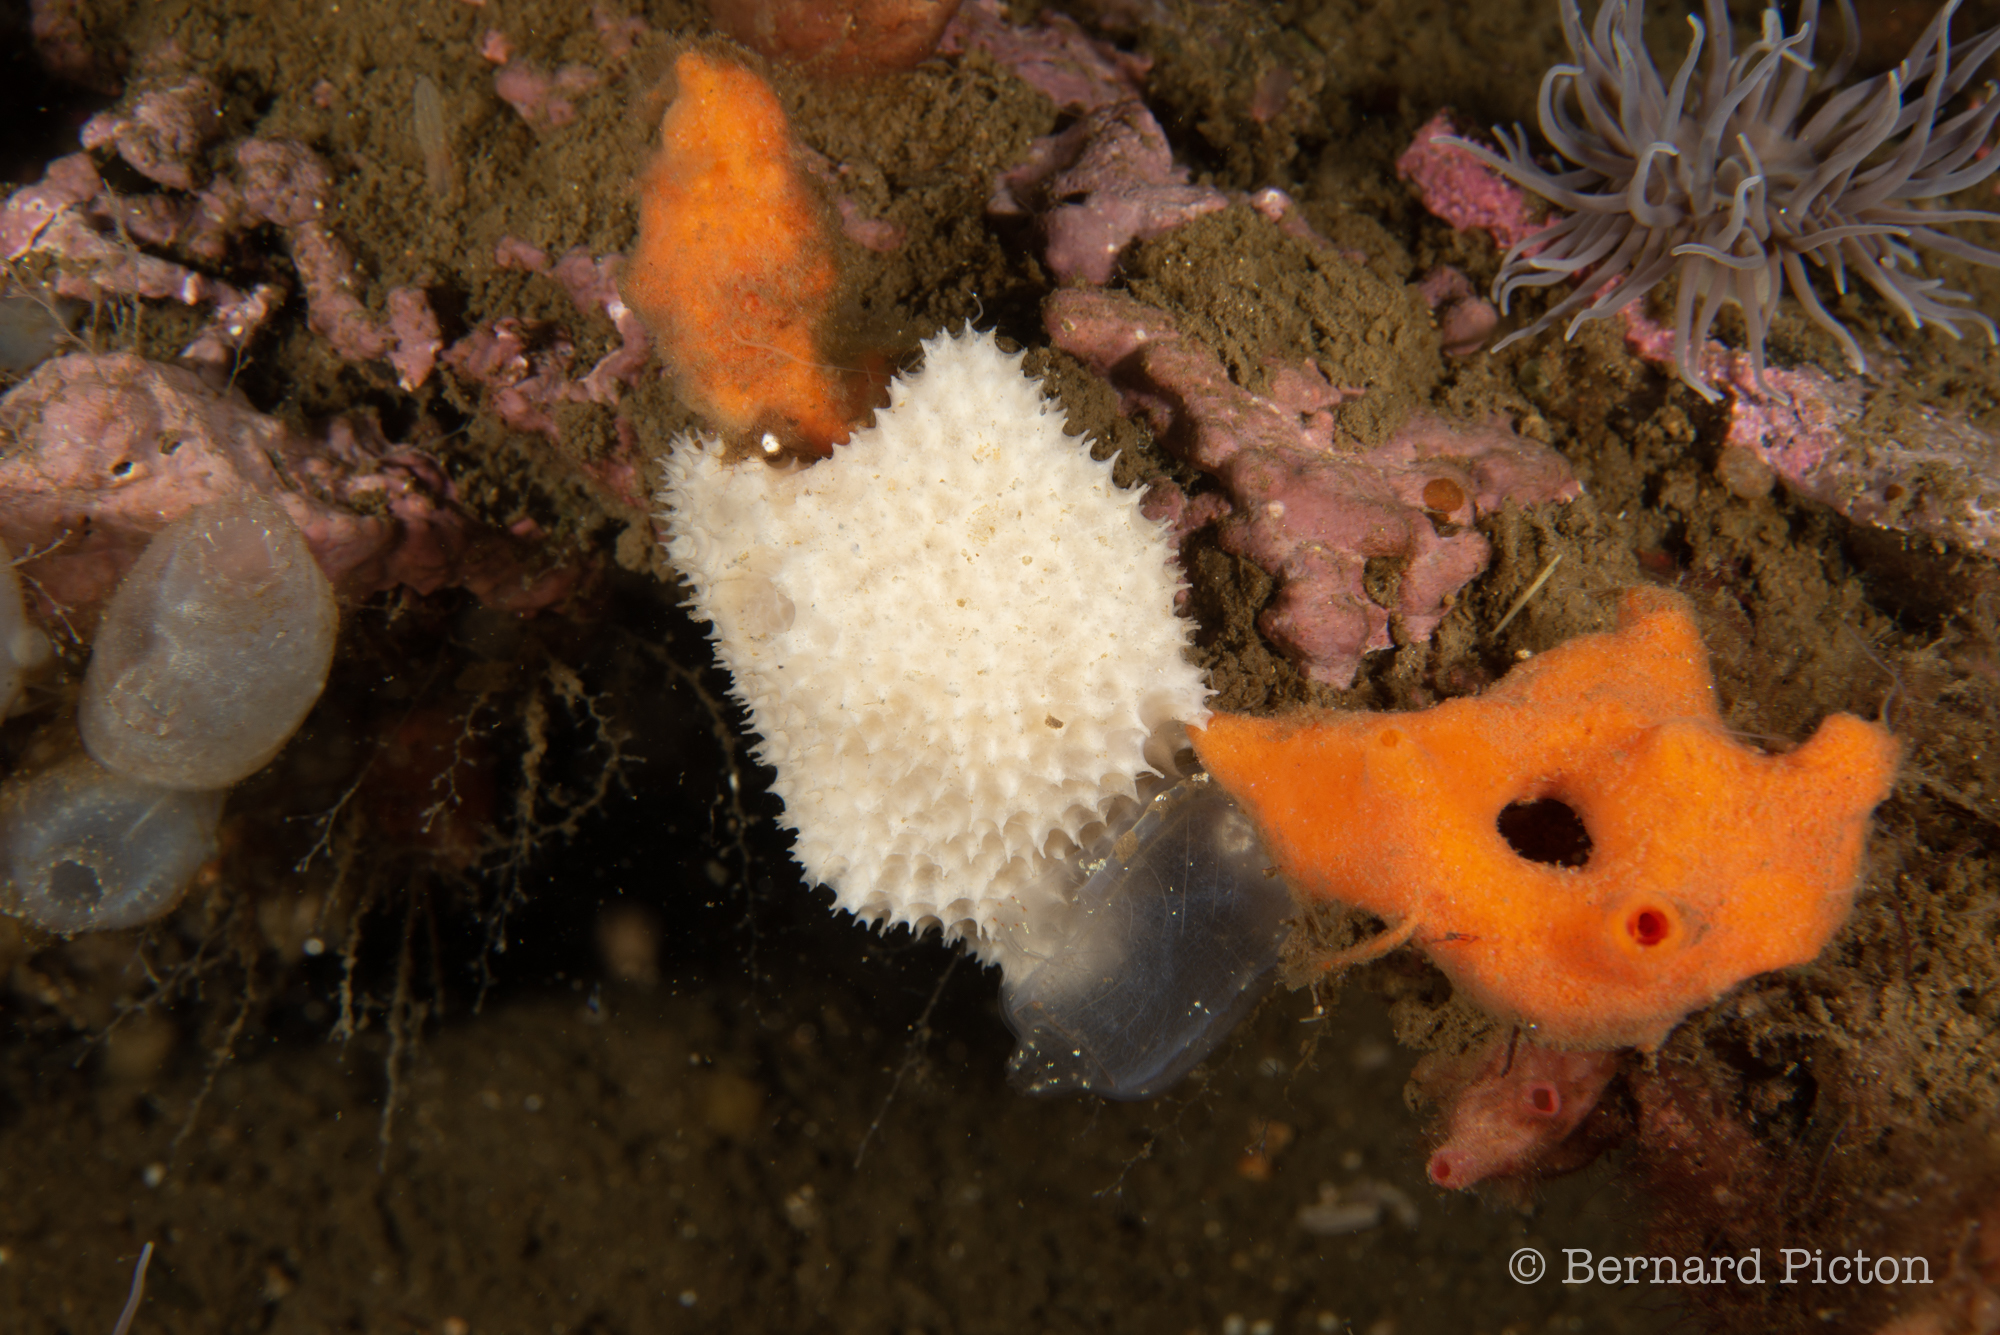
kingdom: Animalia
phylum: Porifera
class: Demospongiae
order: Dictyoceratida
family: Dysideidae
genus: Dysidea
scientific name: Dysidea fragilis
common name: Goosebump sponge
